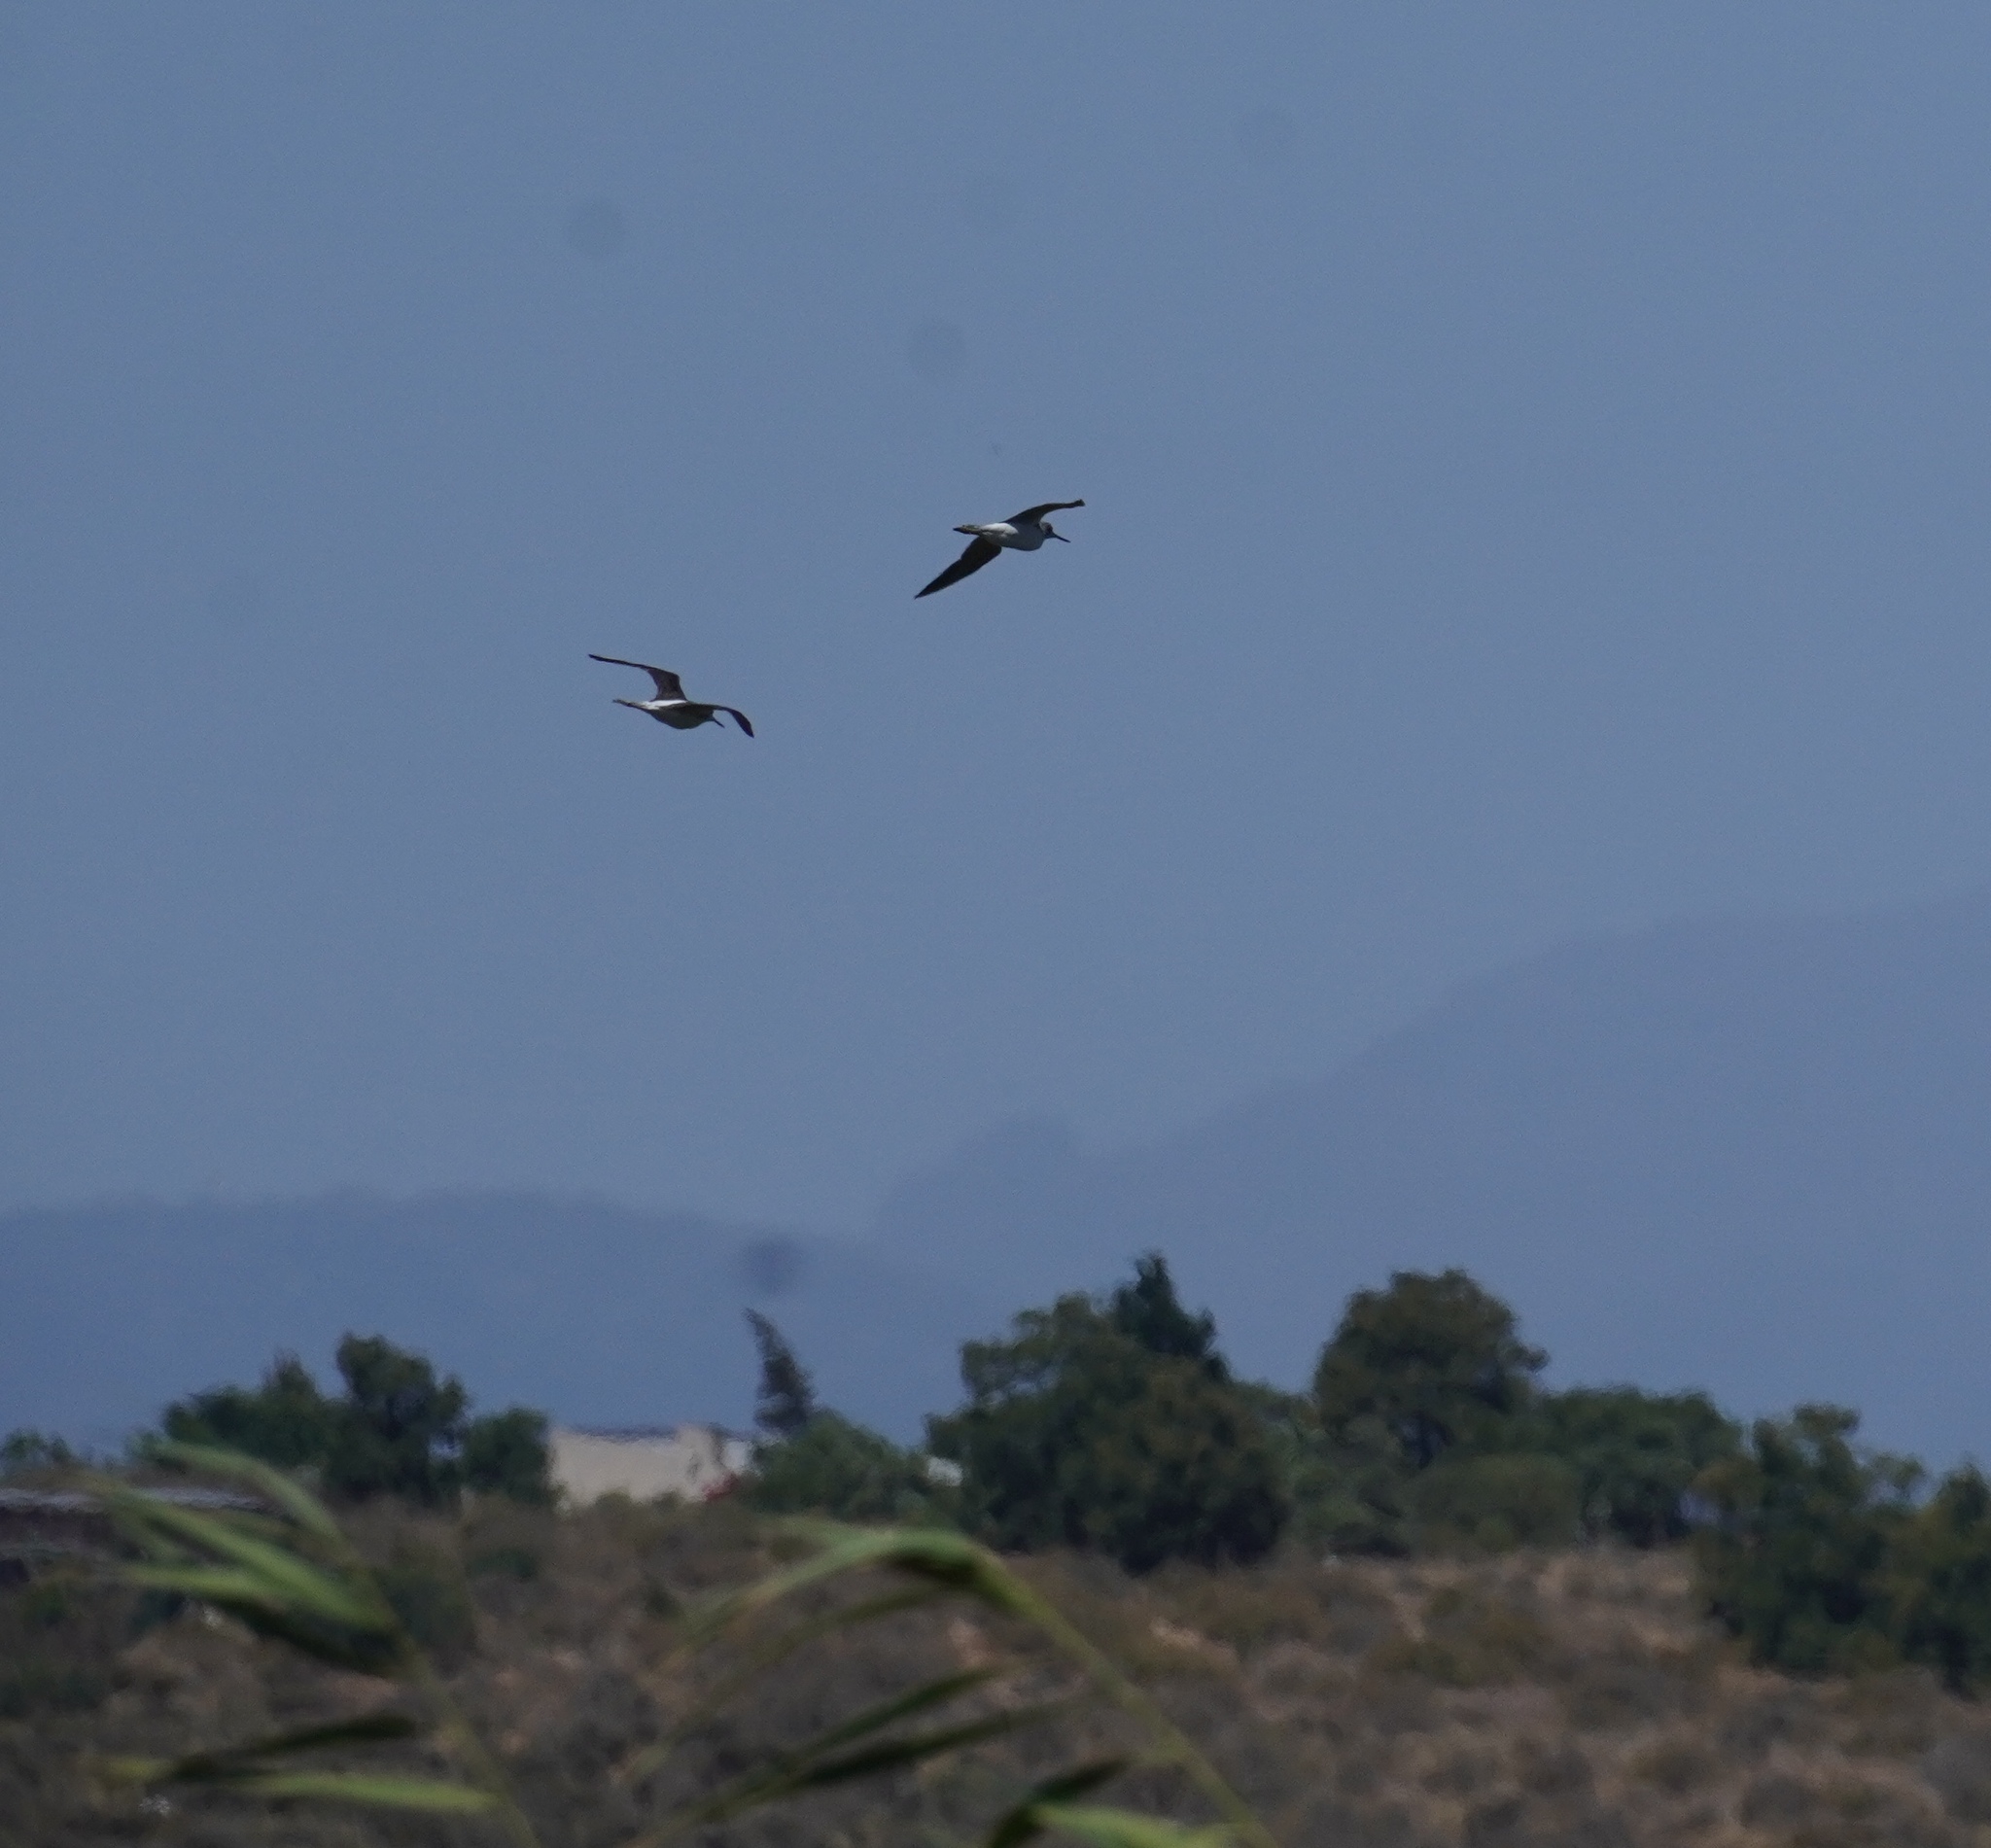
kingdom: Animalia
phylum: Chordata
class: Aves
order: Charadriiformes
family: Scolopacidae
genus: Tringa
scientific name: Tringa nebularia
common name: Common greenshank
